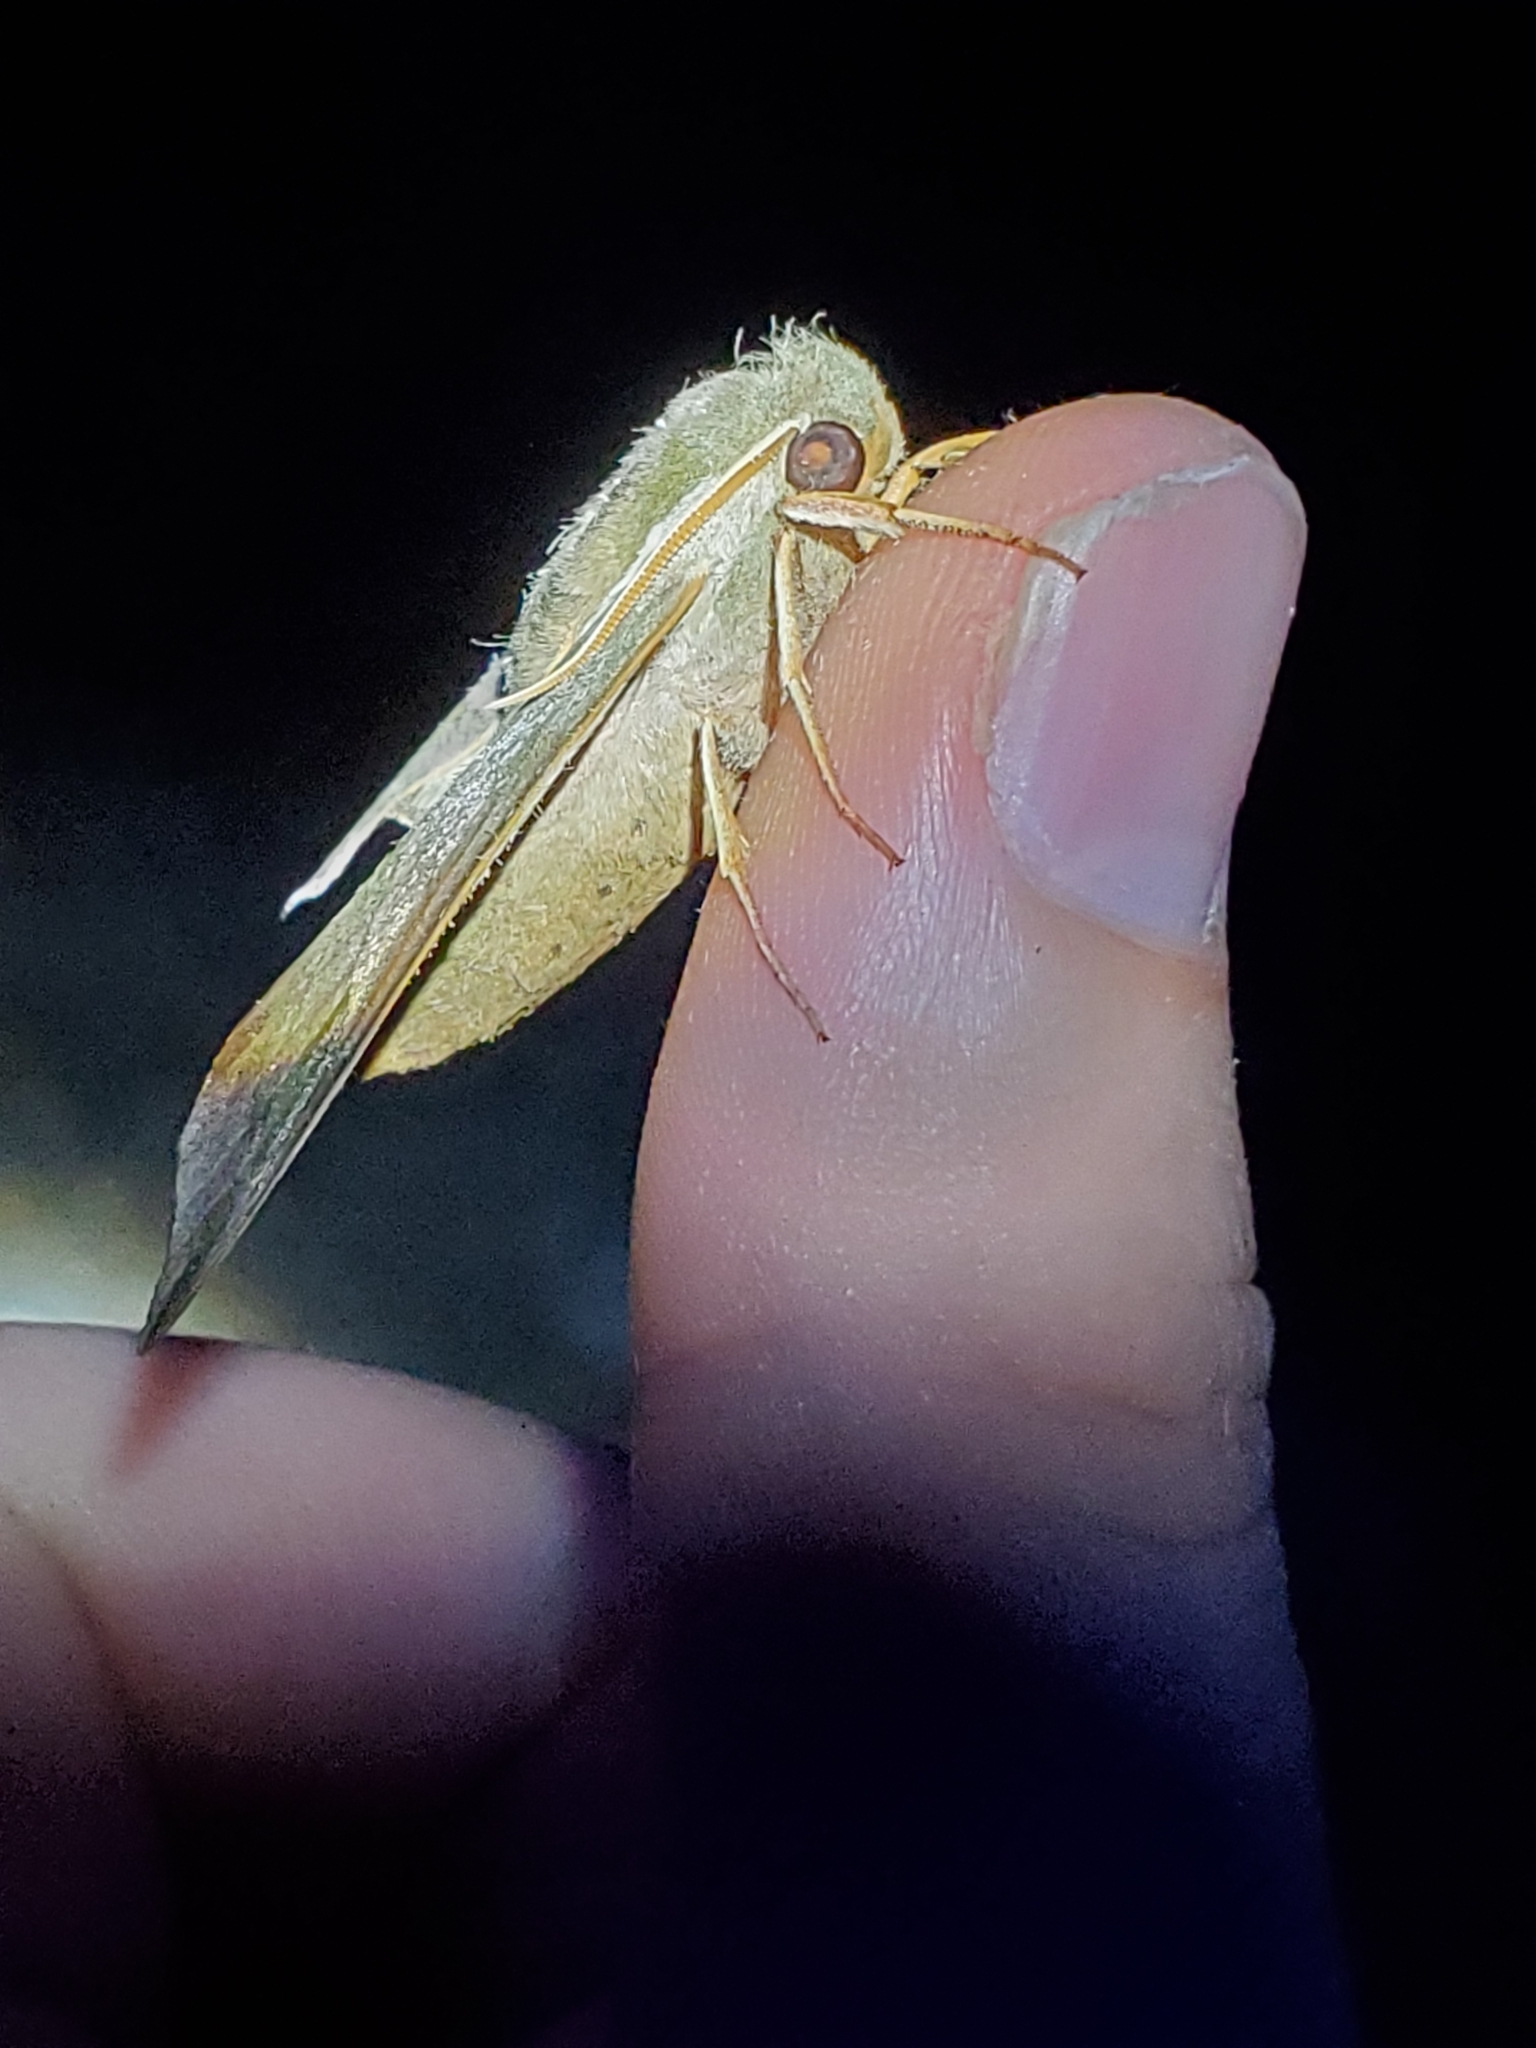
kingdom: Animalia
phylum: Arthropoda
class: Insecta
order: Lepidoptera
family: Sphingidae
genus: Darapsa
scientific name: Darapsa myron
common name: Hog sphinx
